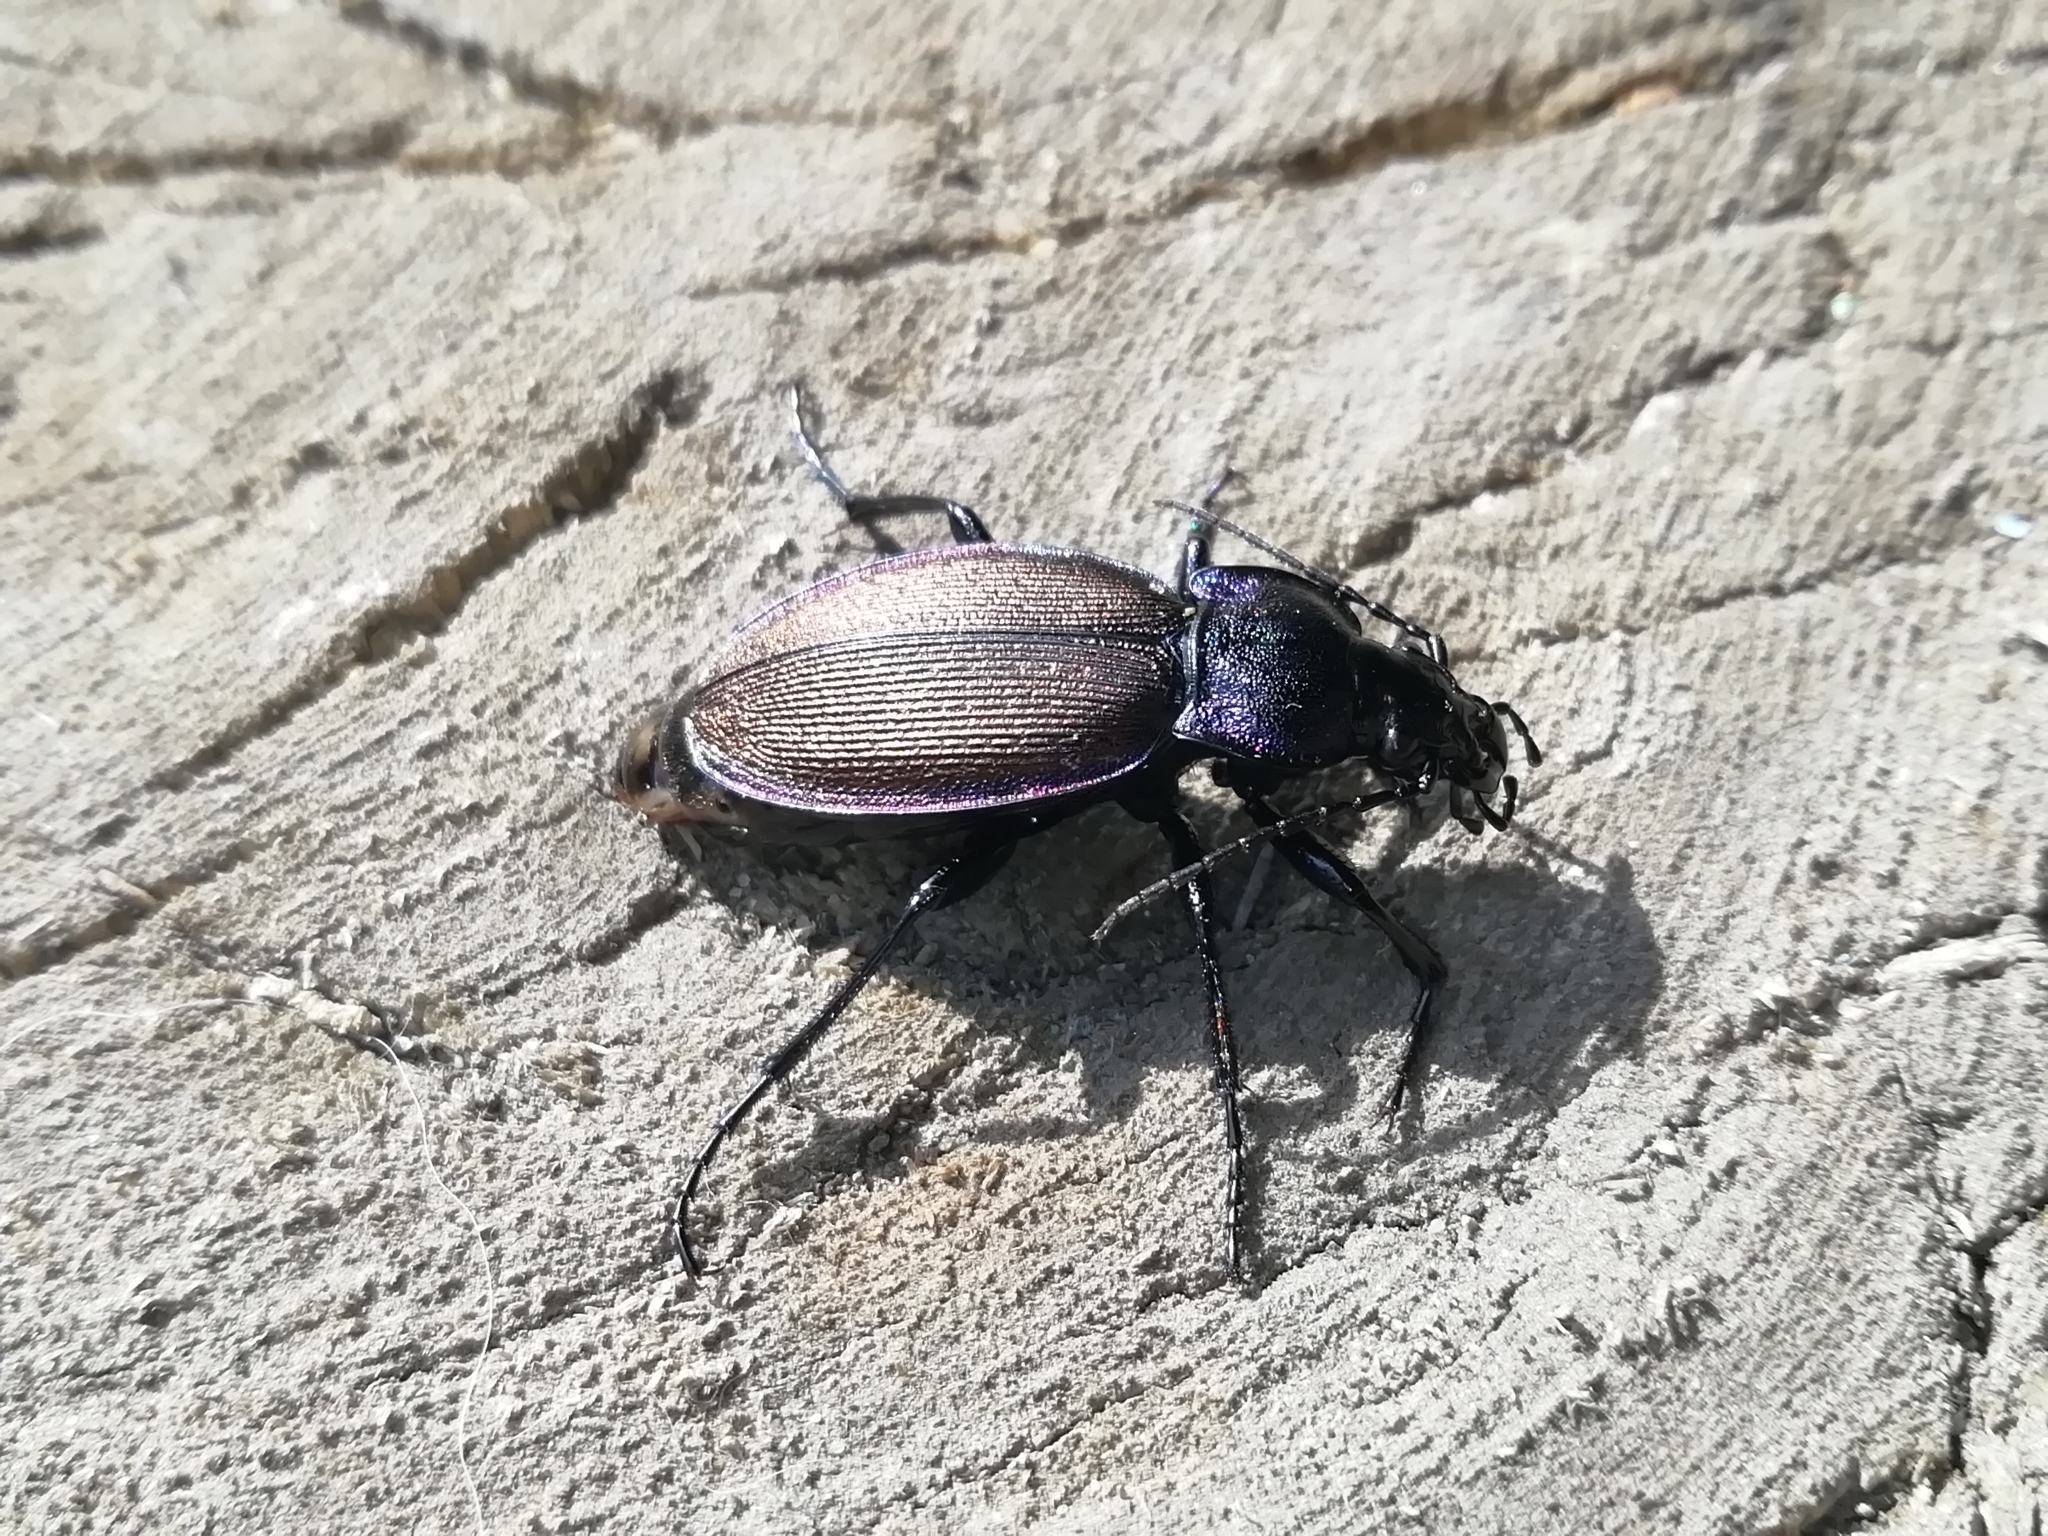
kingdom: Animalia
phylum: Arthropoda
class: Insecta
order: Coleoptera
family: Carabidae
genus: Carabus
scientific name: Carabus regalis
